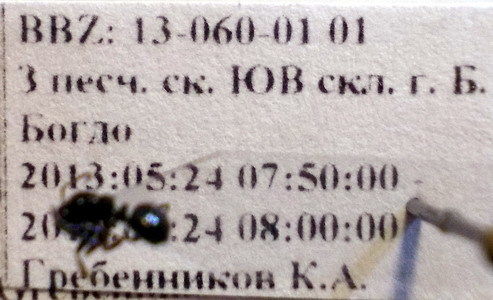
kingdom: Animalia
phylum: Arthropoda
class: Insecta
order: Hymenoptera
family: Formicidae
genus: Camponotus
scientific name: Camponotus piceus
